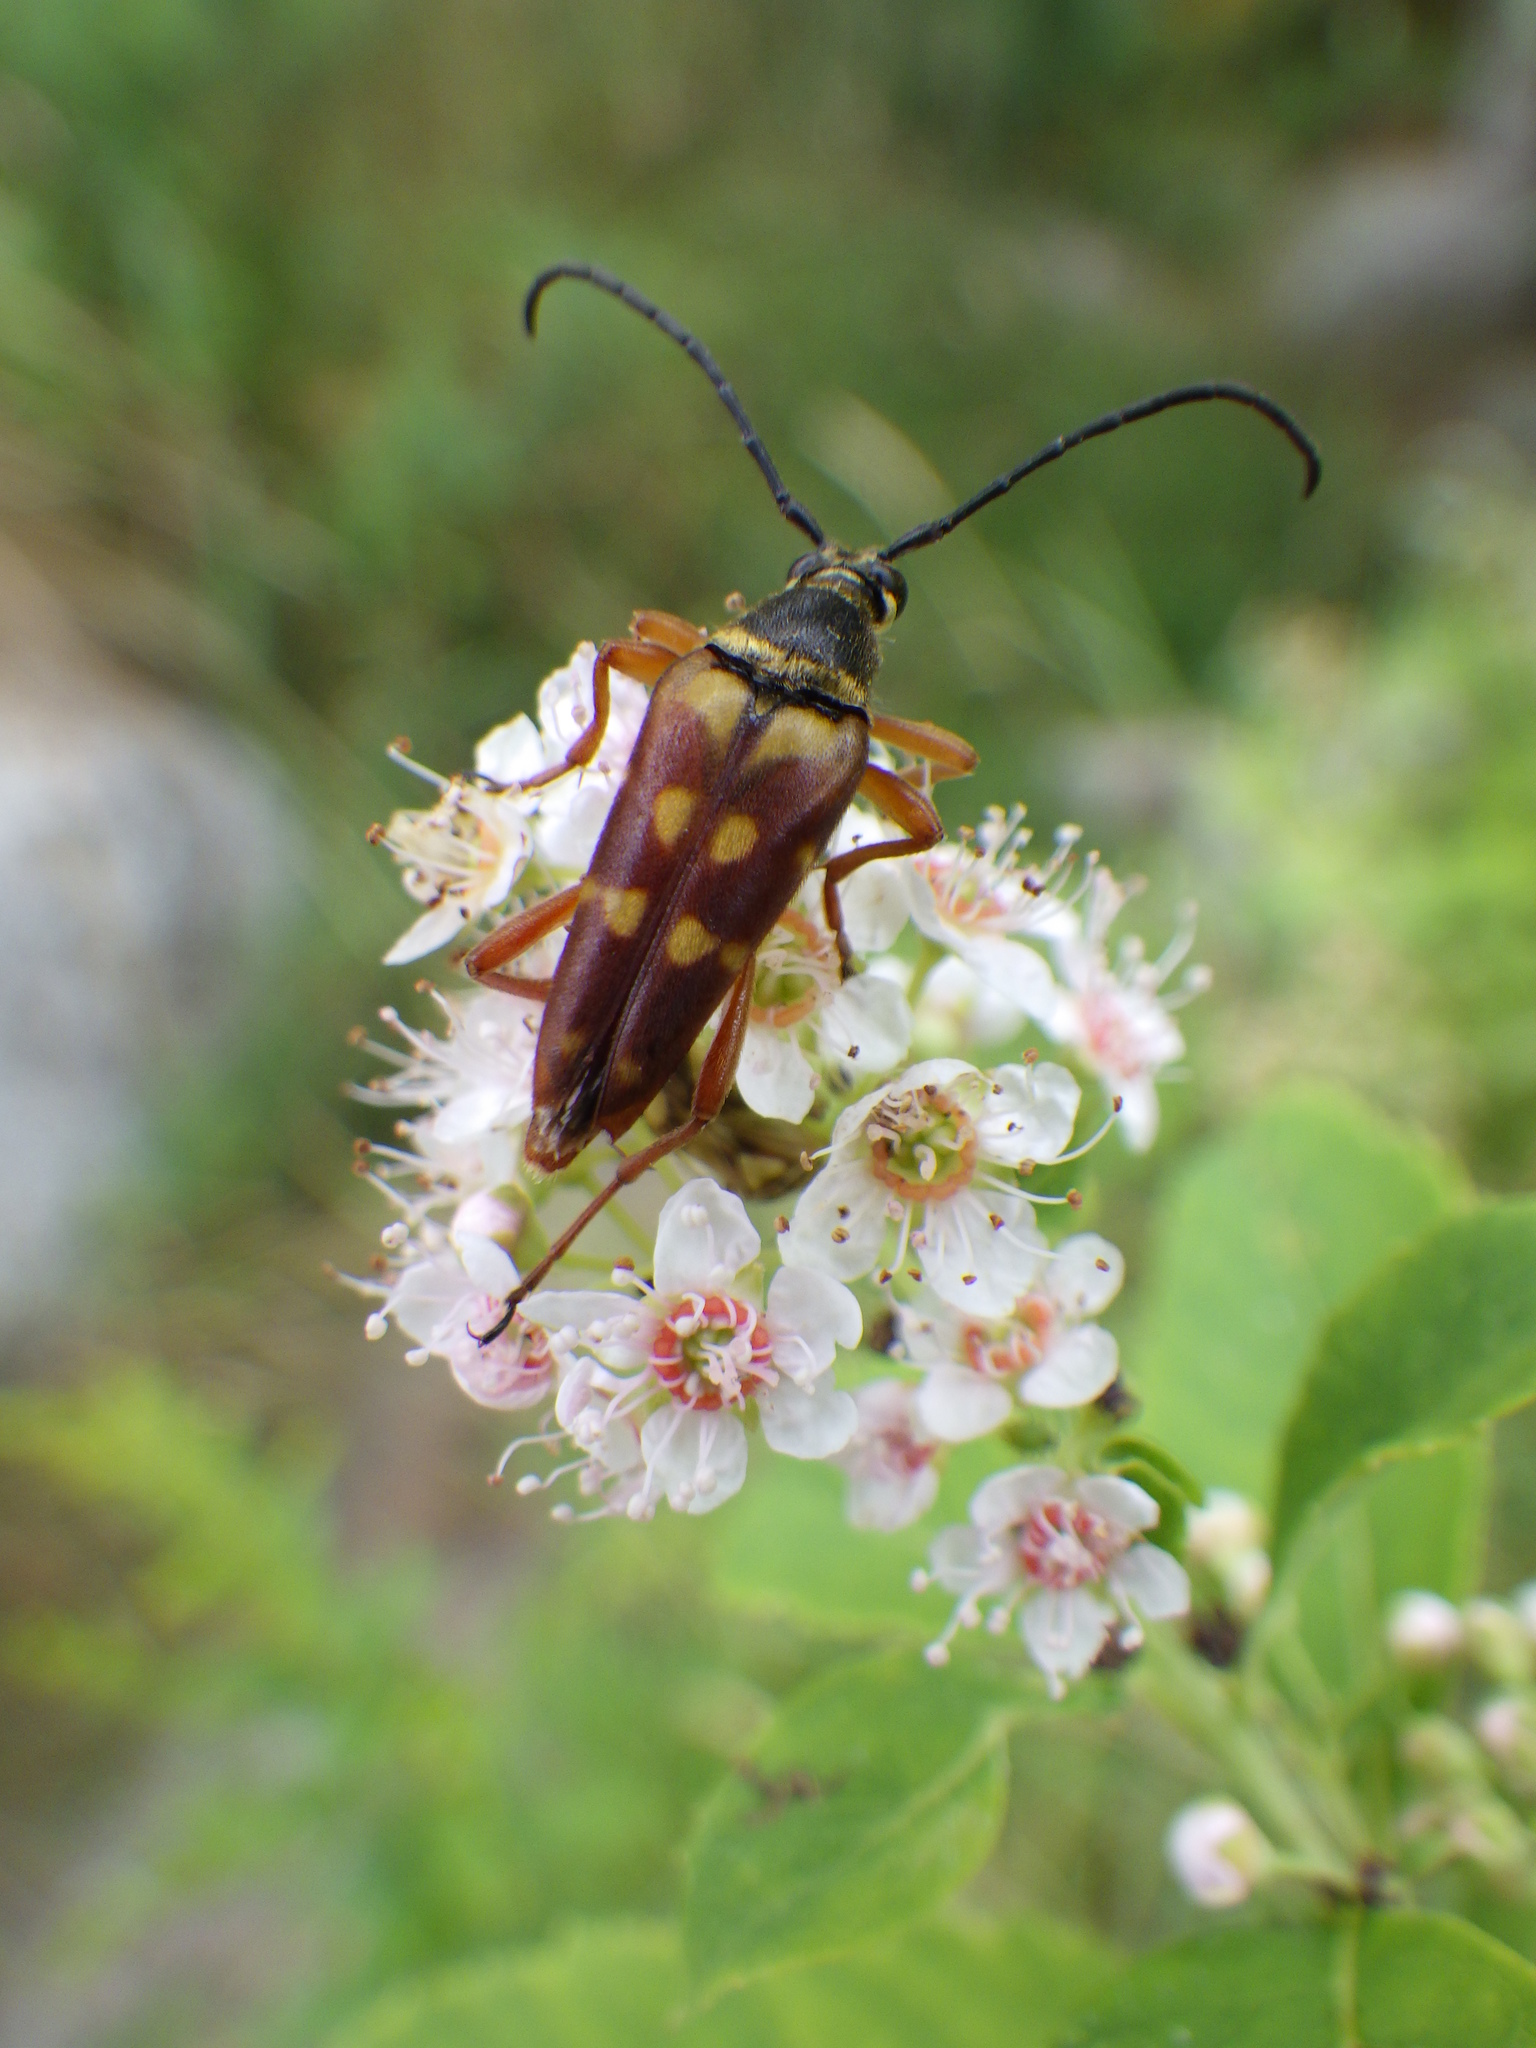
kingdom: Animalia
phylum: Arthropoda
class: Insecta
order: Coleoptera
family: Cerambycidae
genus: Typocerus
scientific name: Typocerus velutinus
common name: Banded longhorn beetle
